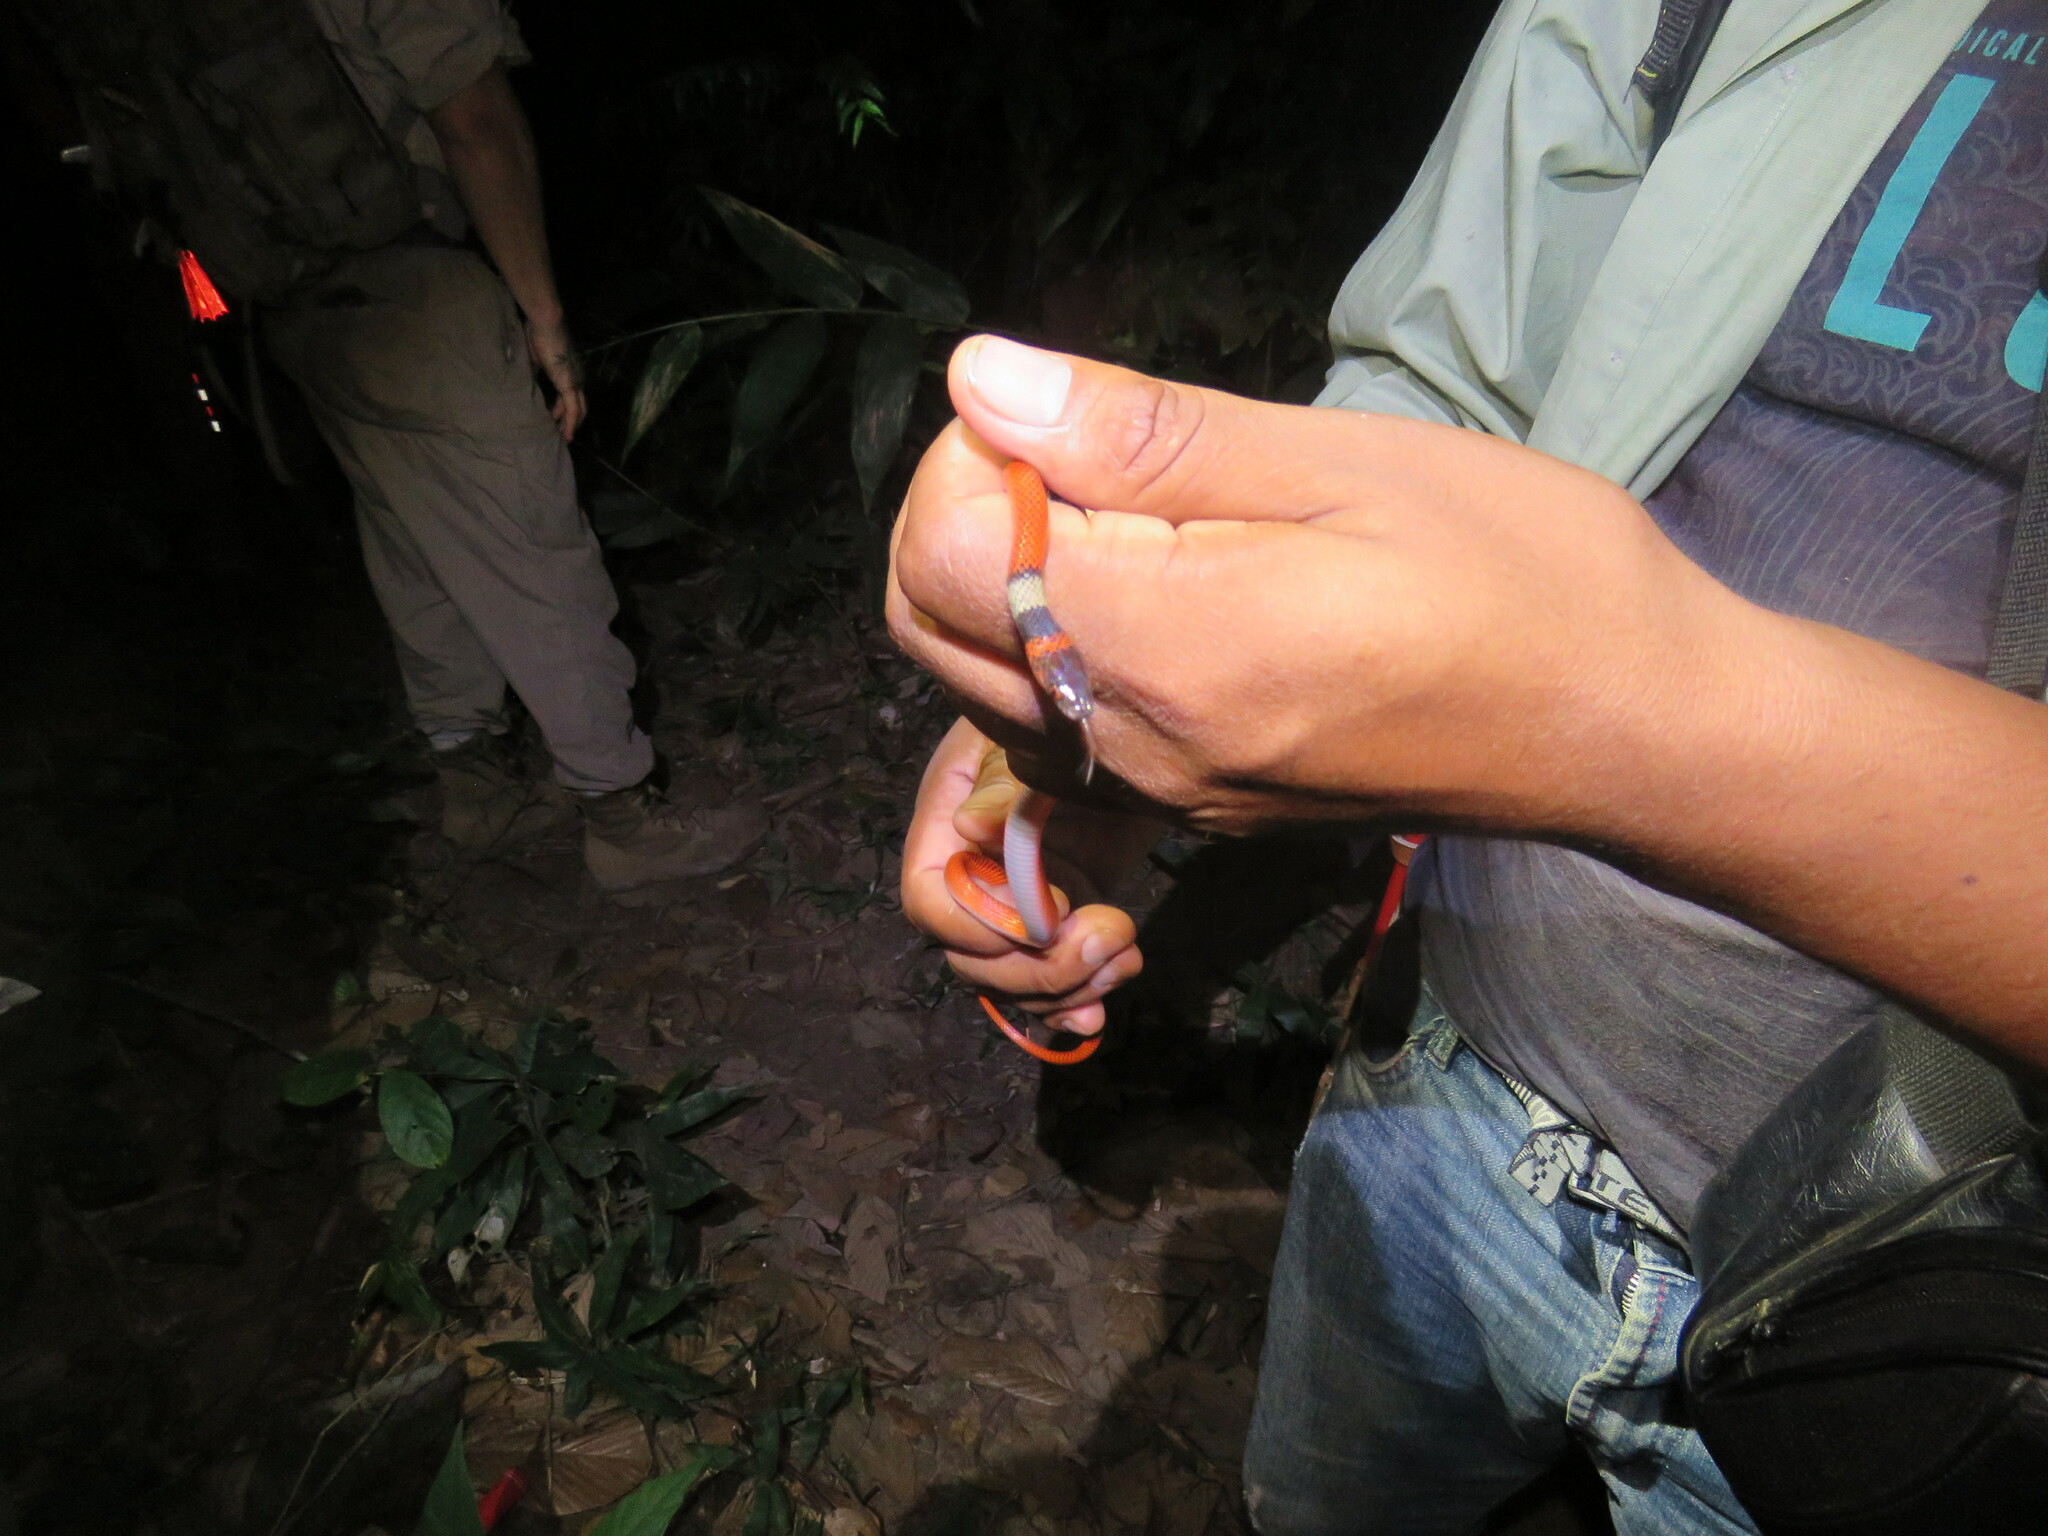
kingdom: Animalia
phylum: Chordata
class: Squamata
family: Colubridae
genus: Oxyrhopus
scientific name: Oxyrhopus melanogenys
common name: Tschudi's false coral snake
